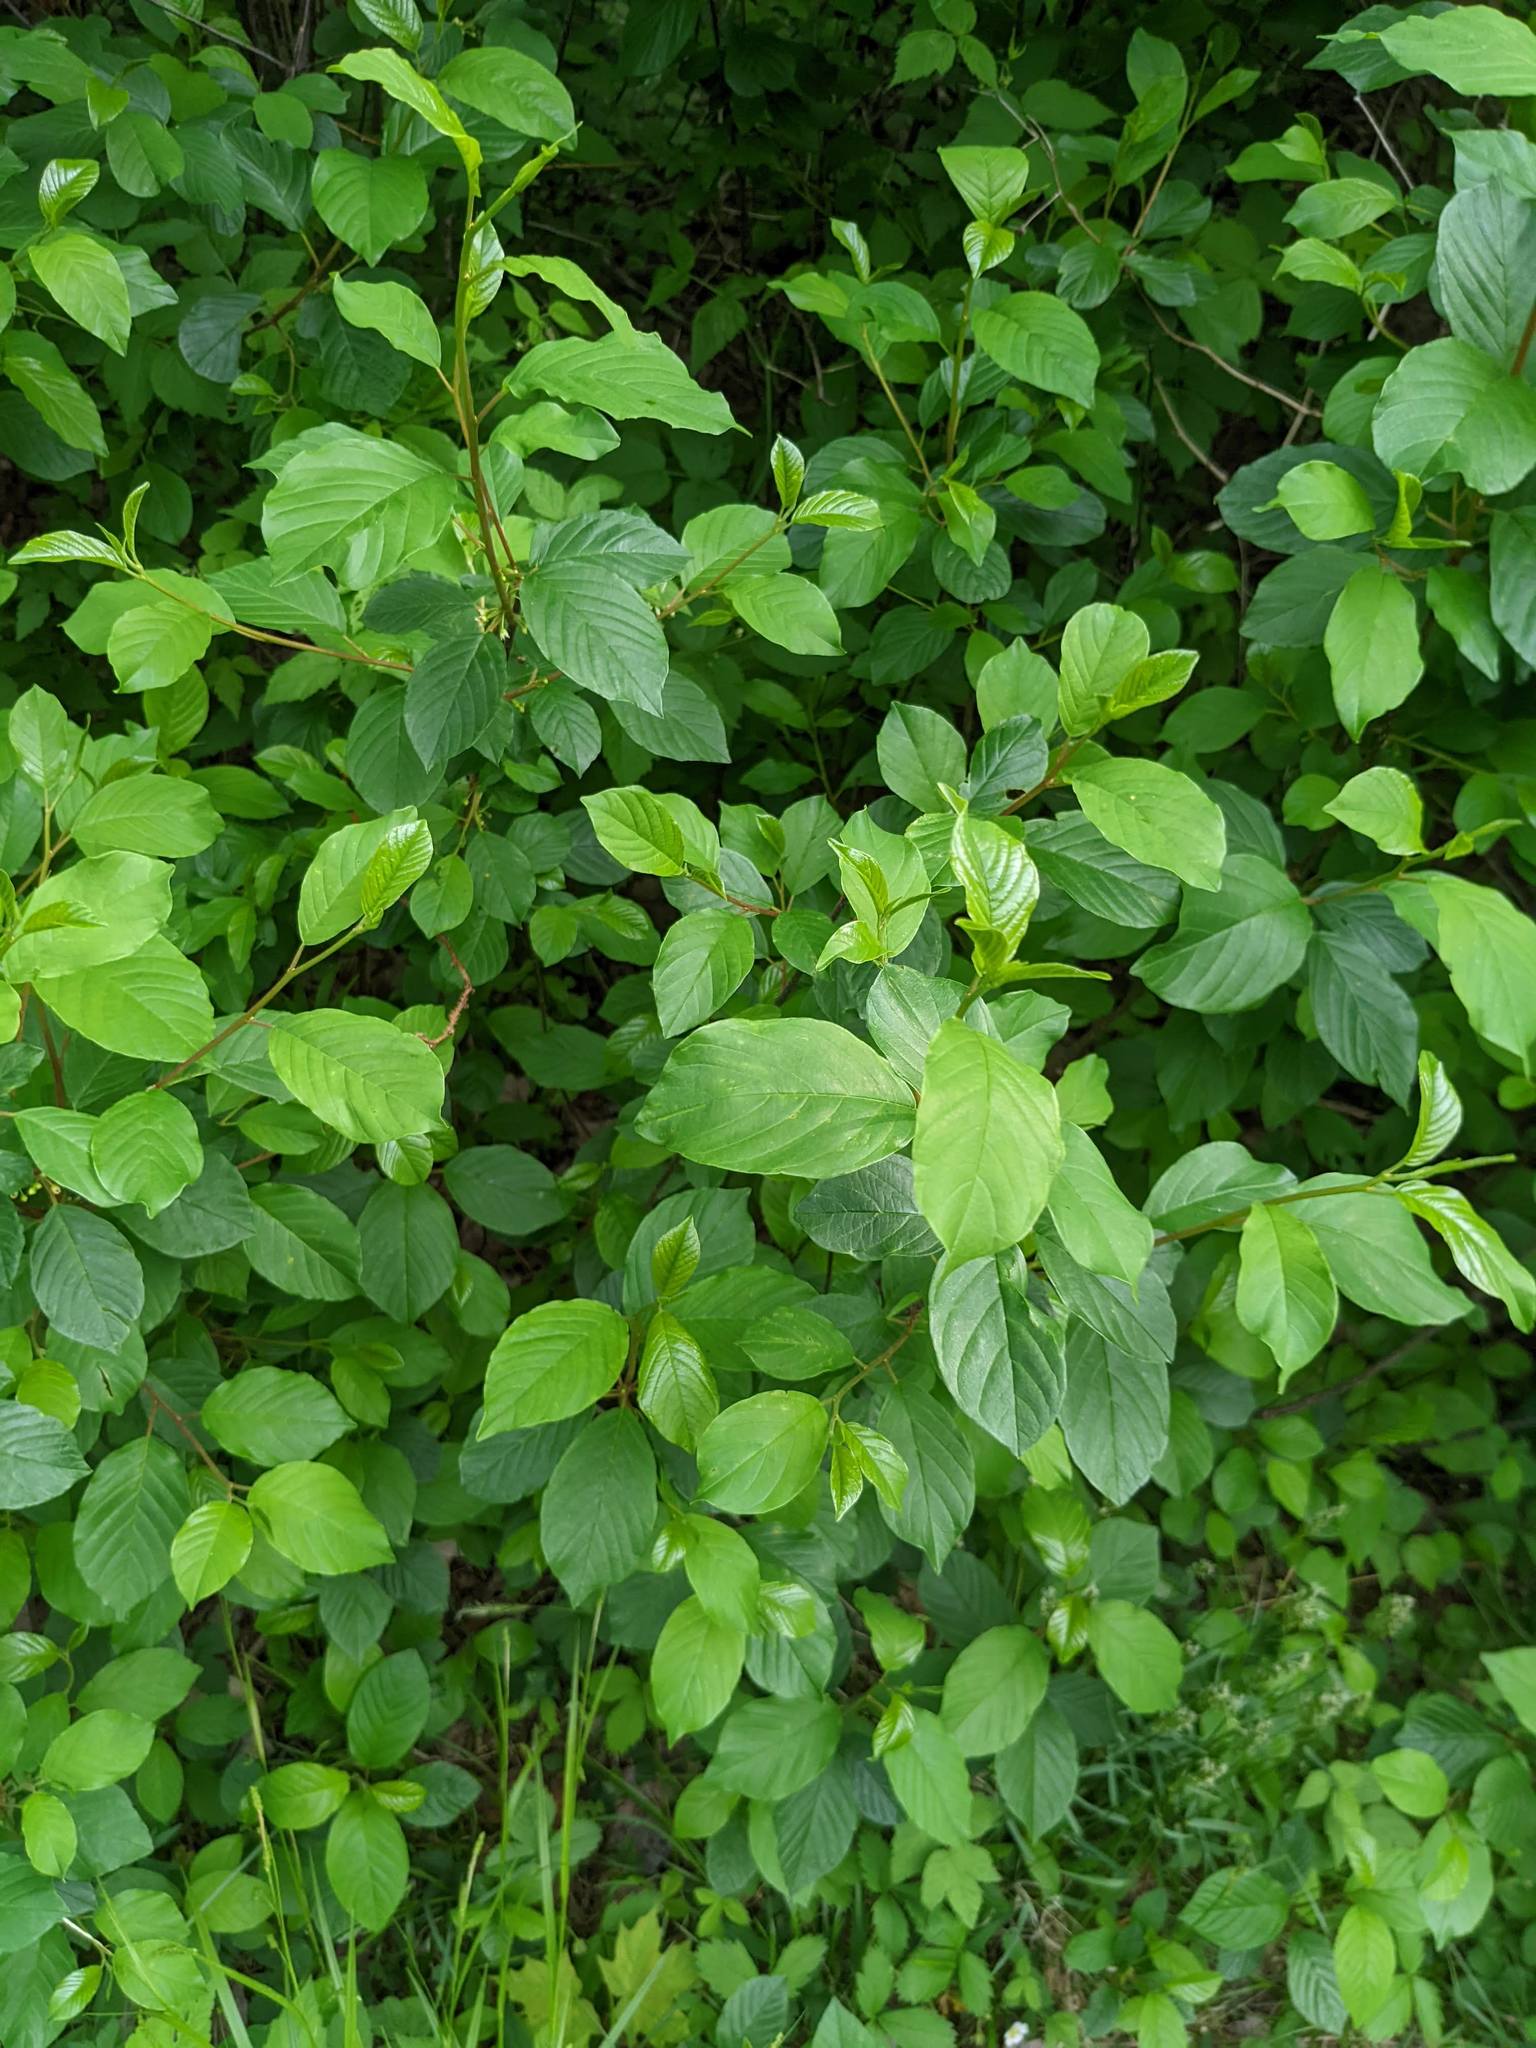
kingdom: Plantae
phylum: Tracheophyta
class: Magnoliopsida
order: Rosales
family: Rhamnaceae
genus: Frangula
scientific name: Frangula alnus
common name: Alder buckthorn
